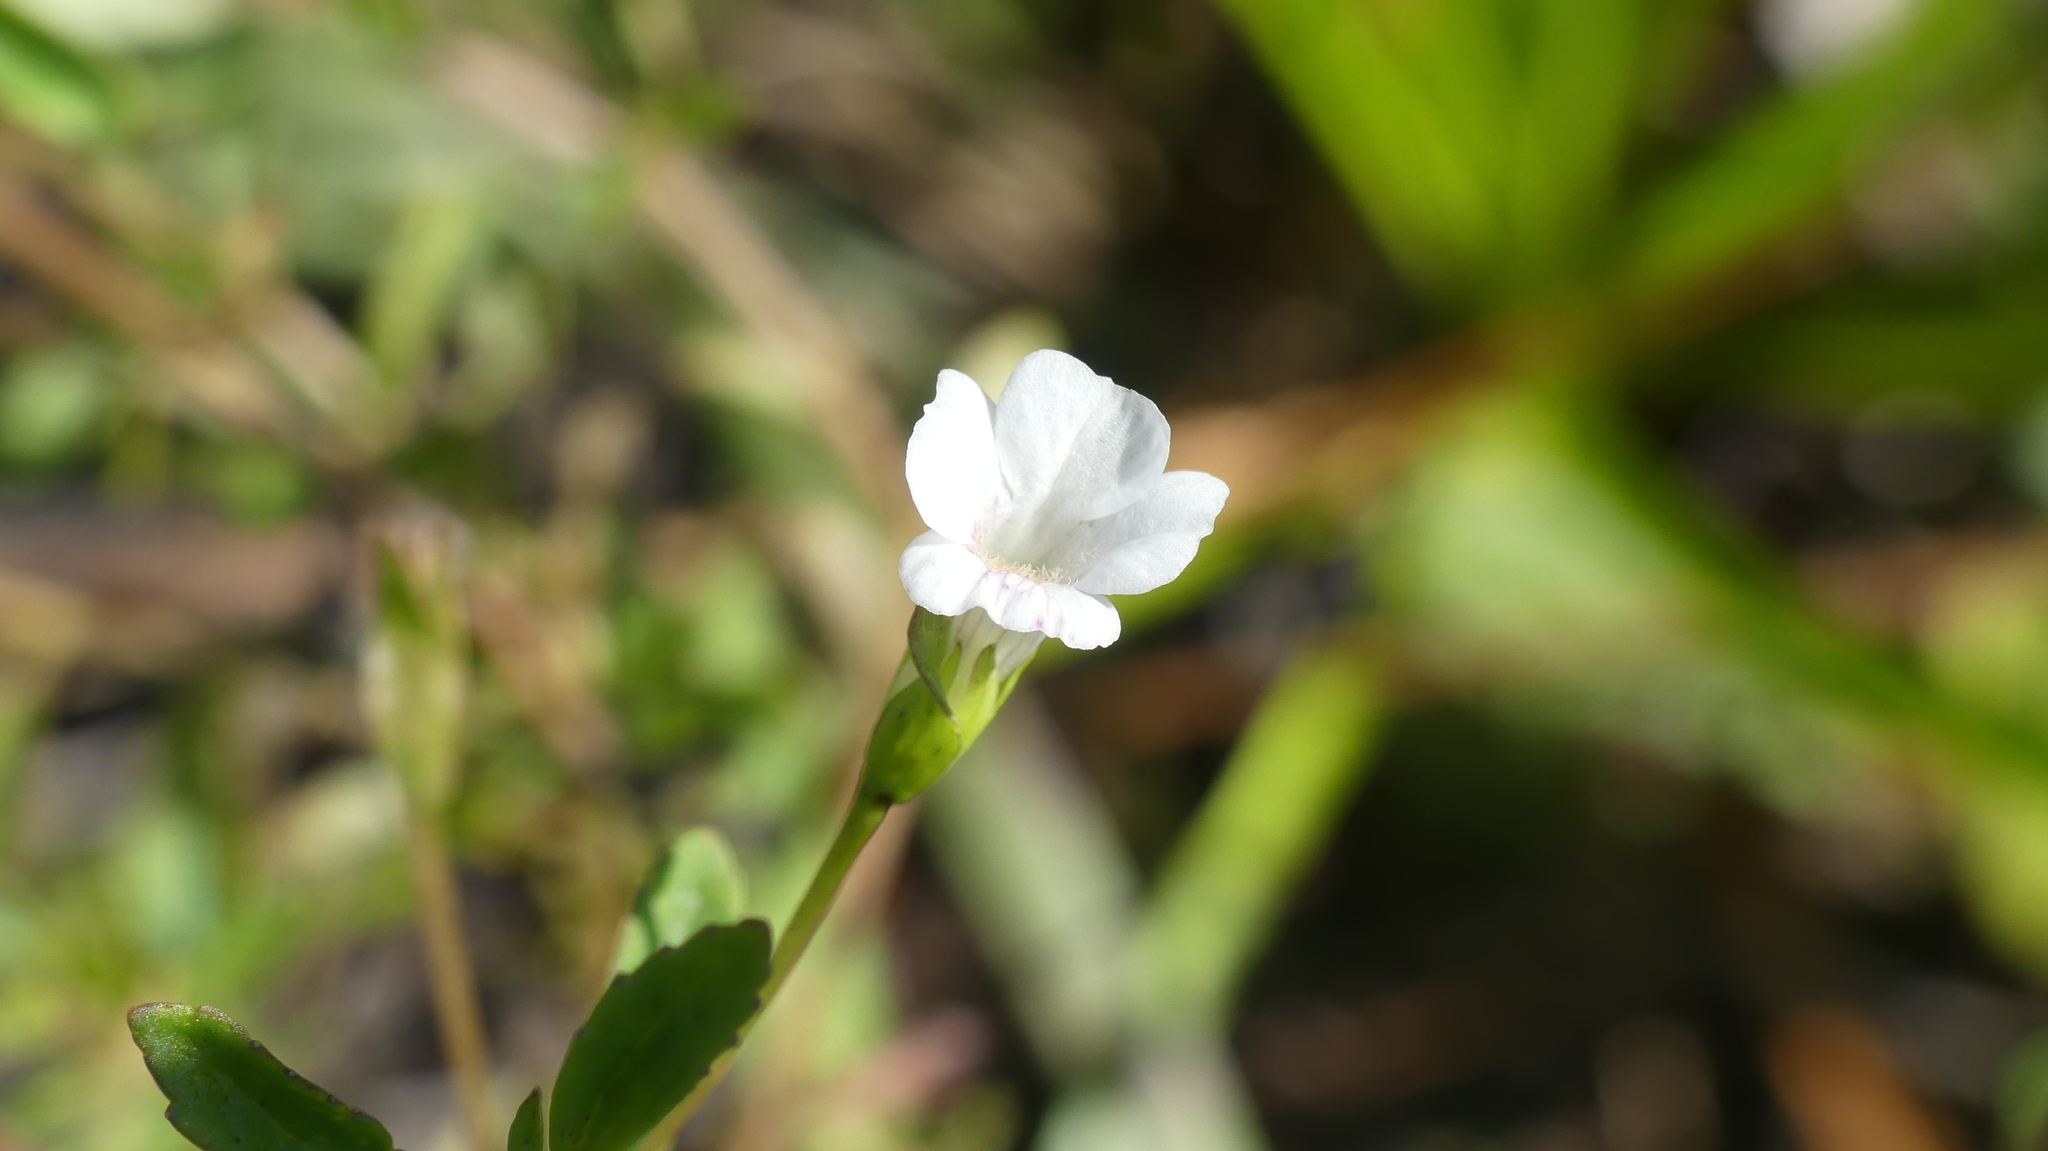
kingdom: Plantae
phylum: Tracheophyta
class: Magnoliopsida
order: Lamiales
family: Plantaginaceae
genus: Mecardonia
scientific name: Mecardonia acuminata
